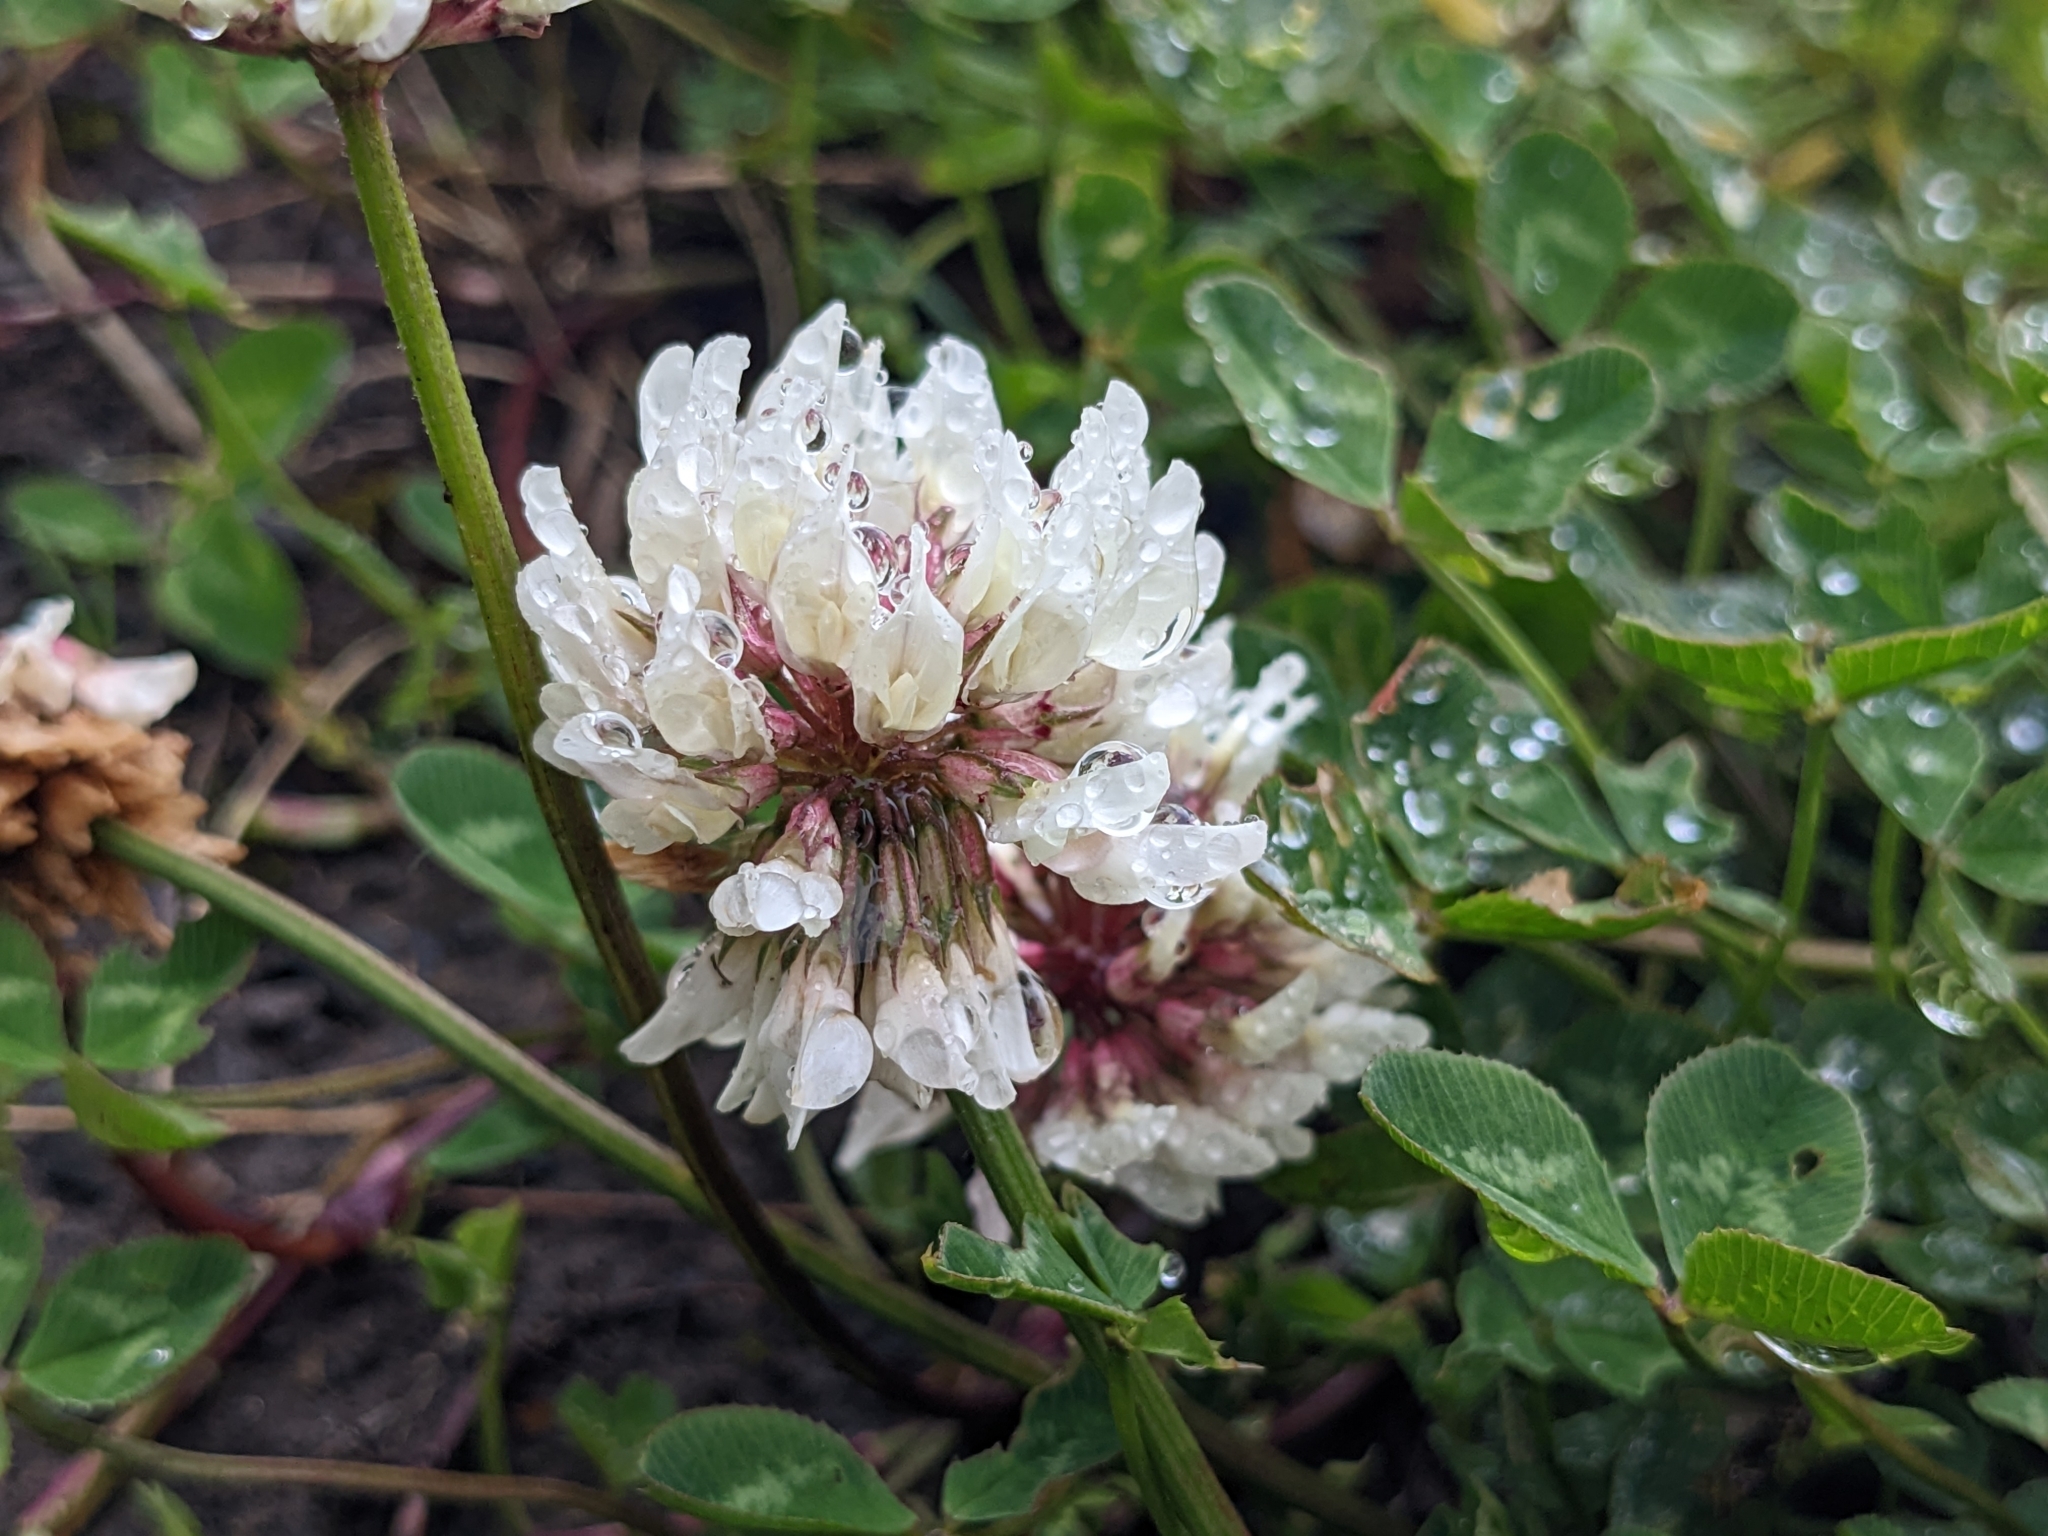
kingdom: Plantae
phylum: Tracheophyta
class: Magnoliopsida
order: Fabales
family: Fabaceae
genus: Trifolium
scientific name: Trifolium repens
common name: White clover
